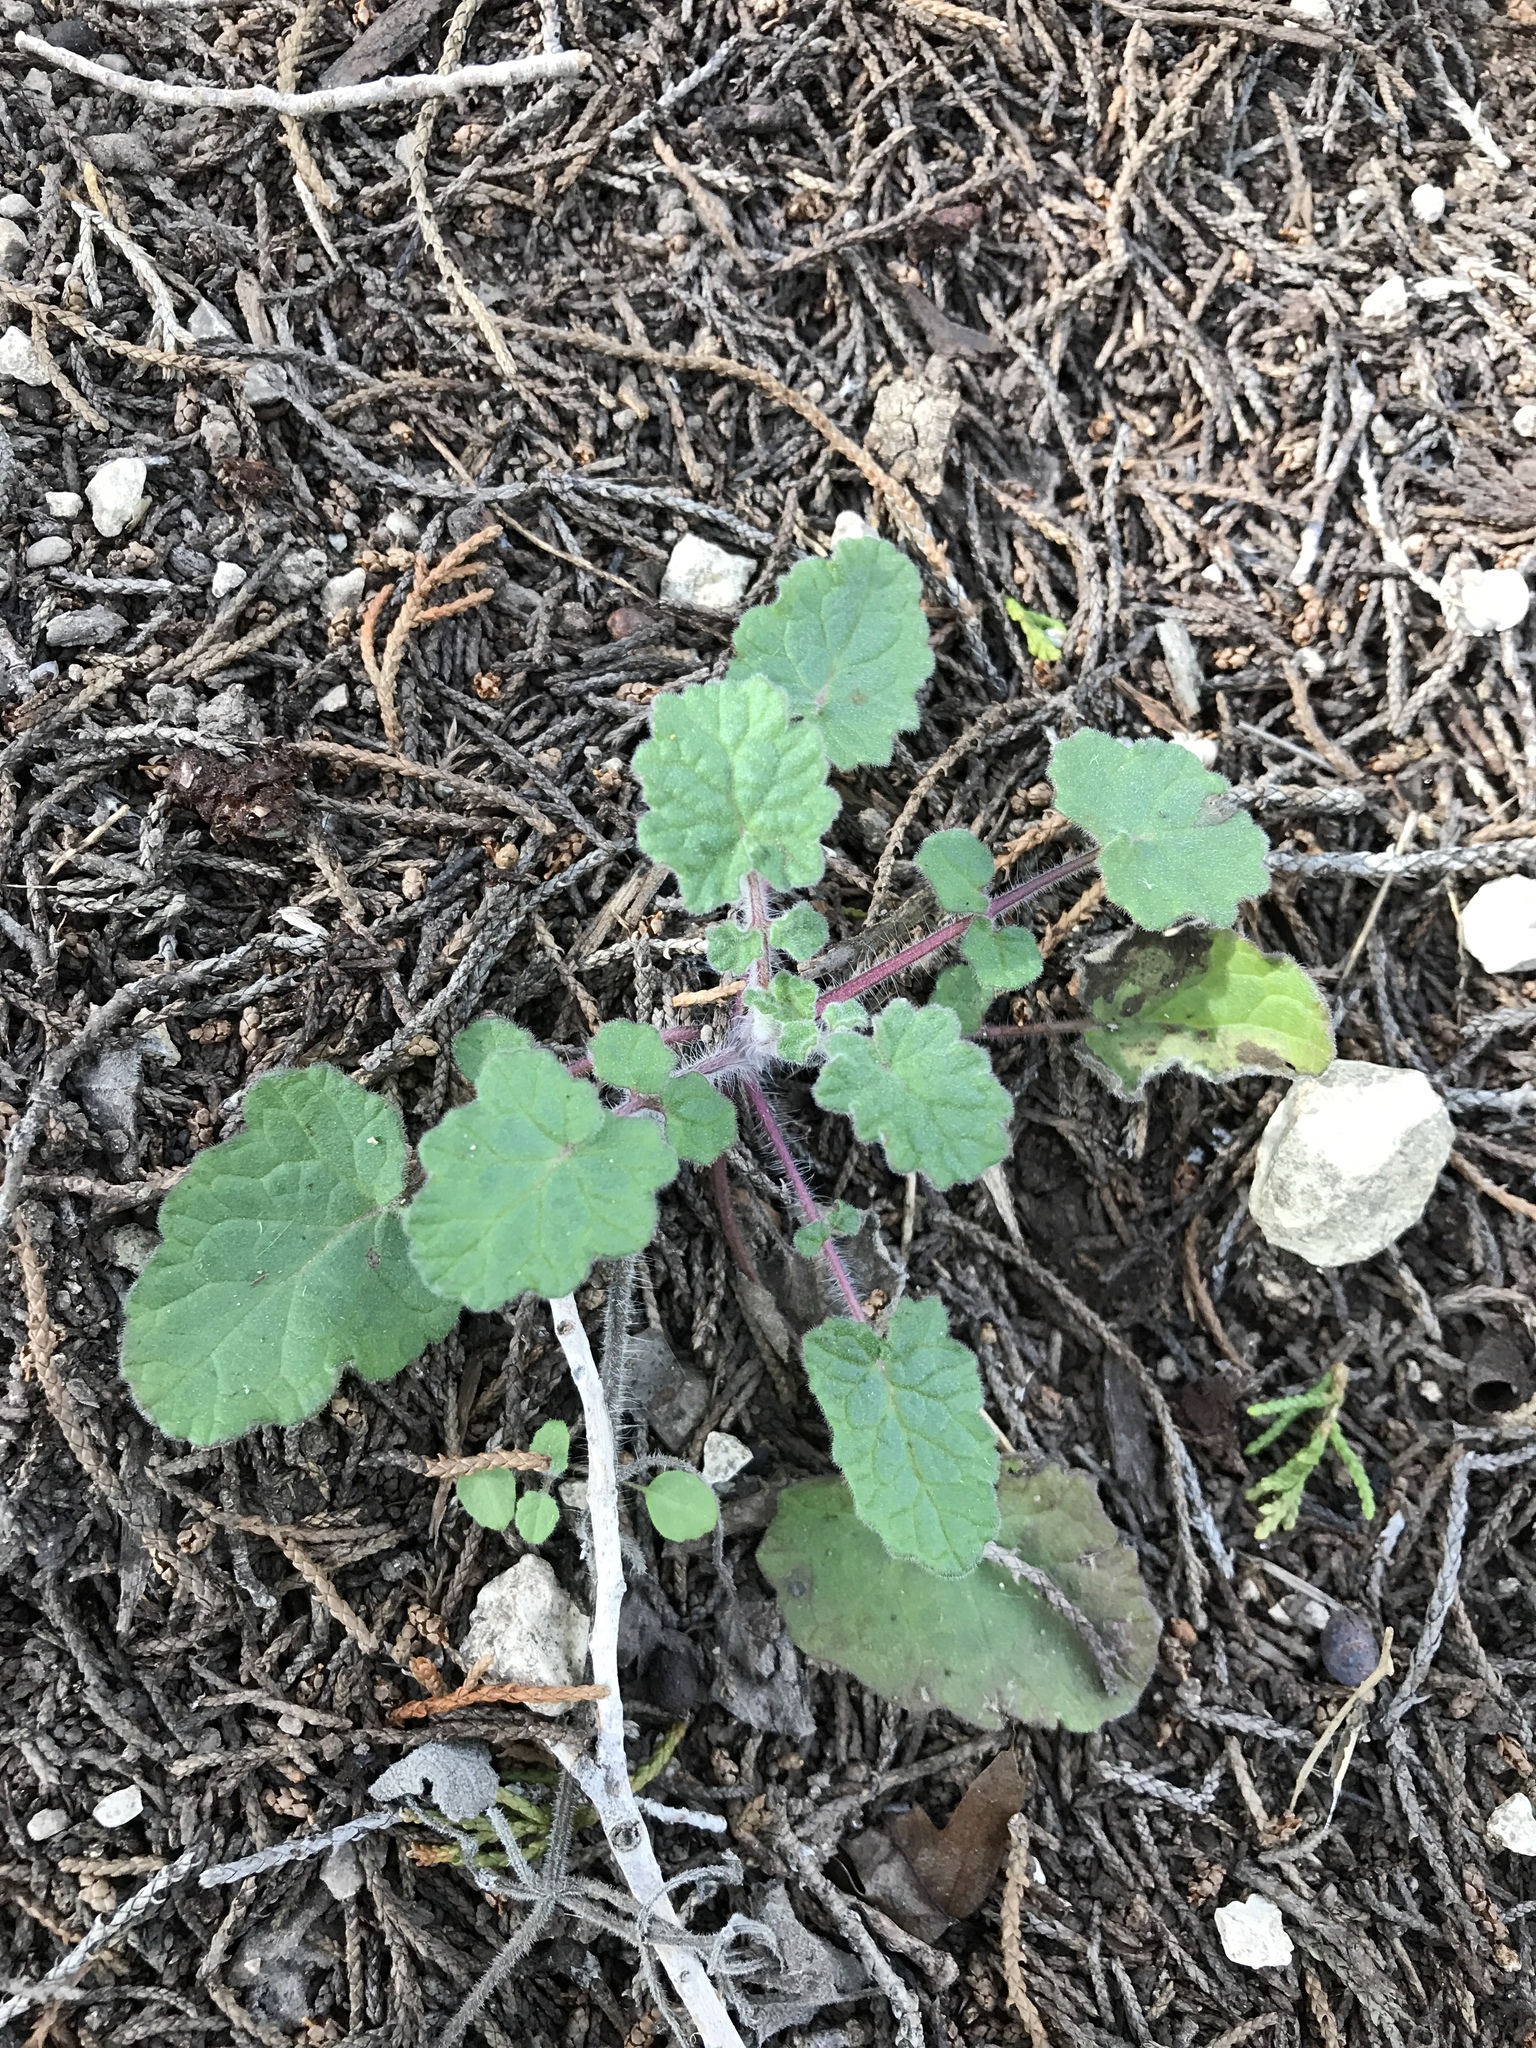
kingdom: Plantae
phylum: Tracheophyta
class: Magnoliopsida
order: Lamiales
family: Lamiaceae
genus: Salvia
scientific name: Salvia roemeriana
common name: Cedar sage
